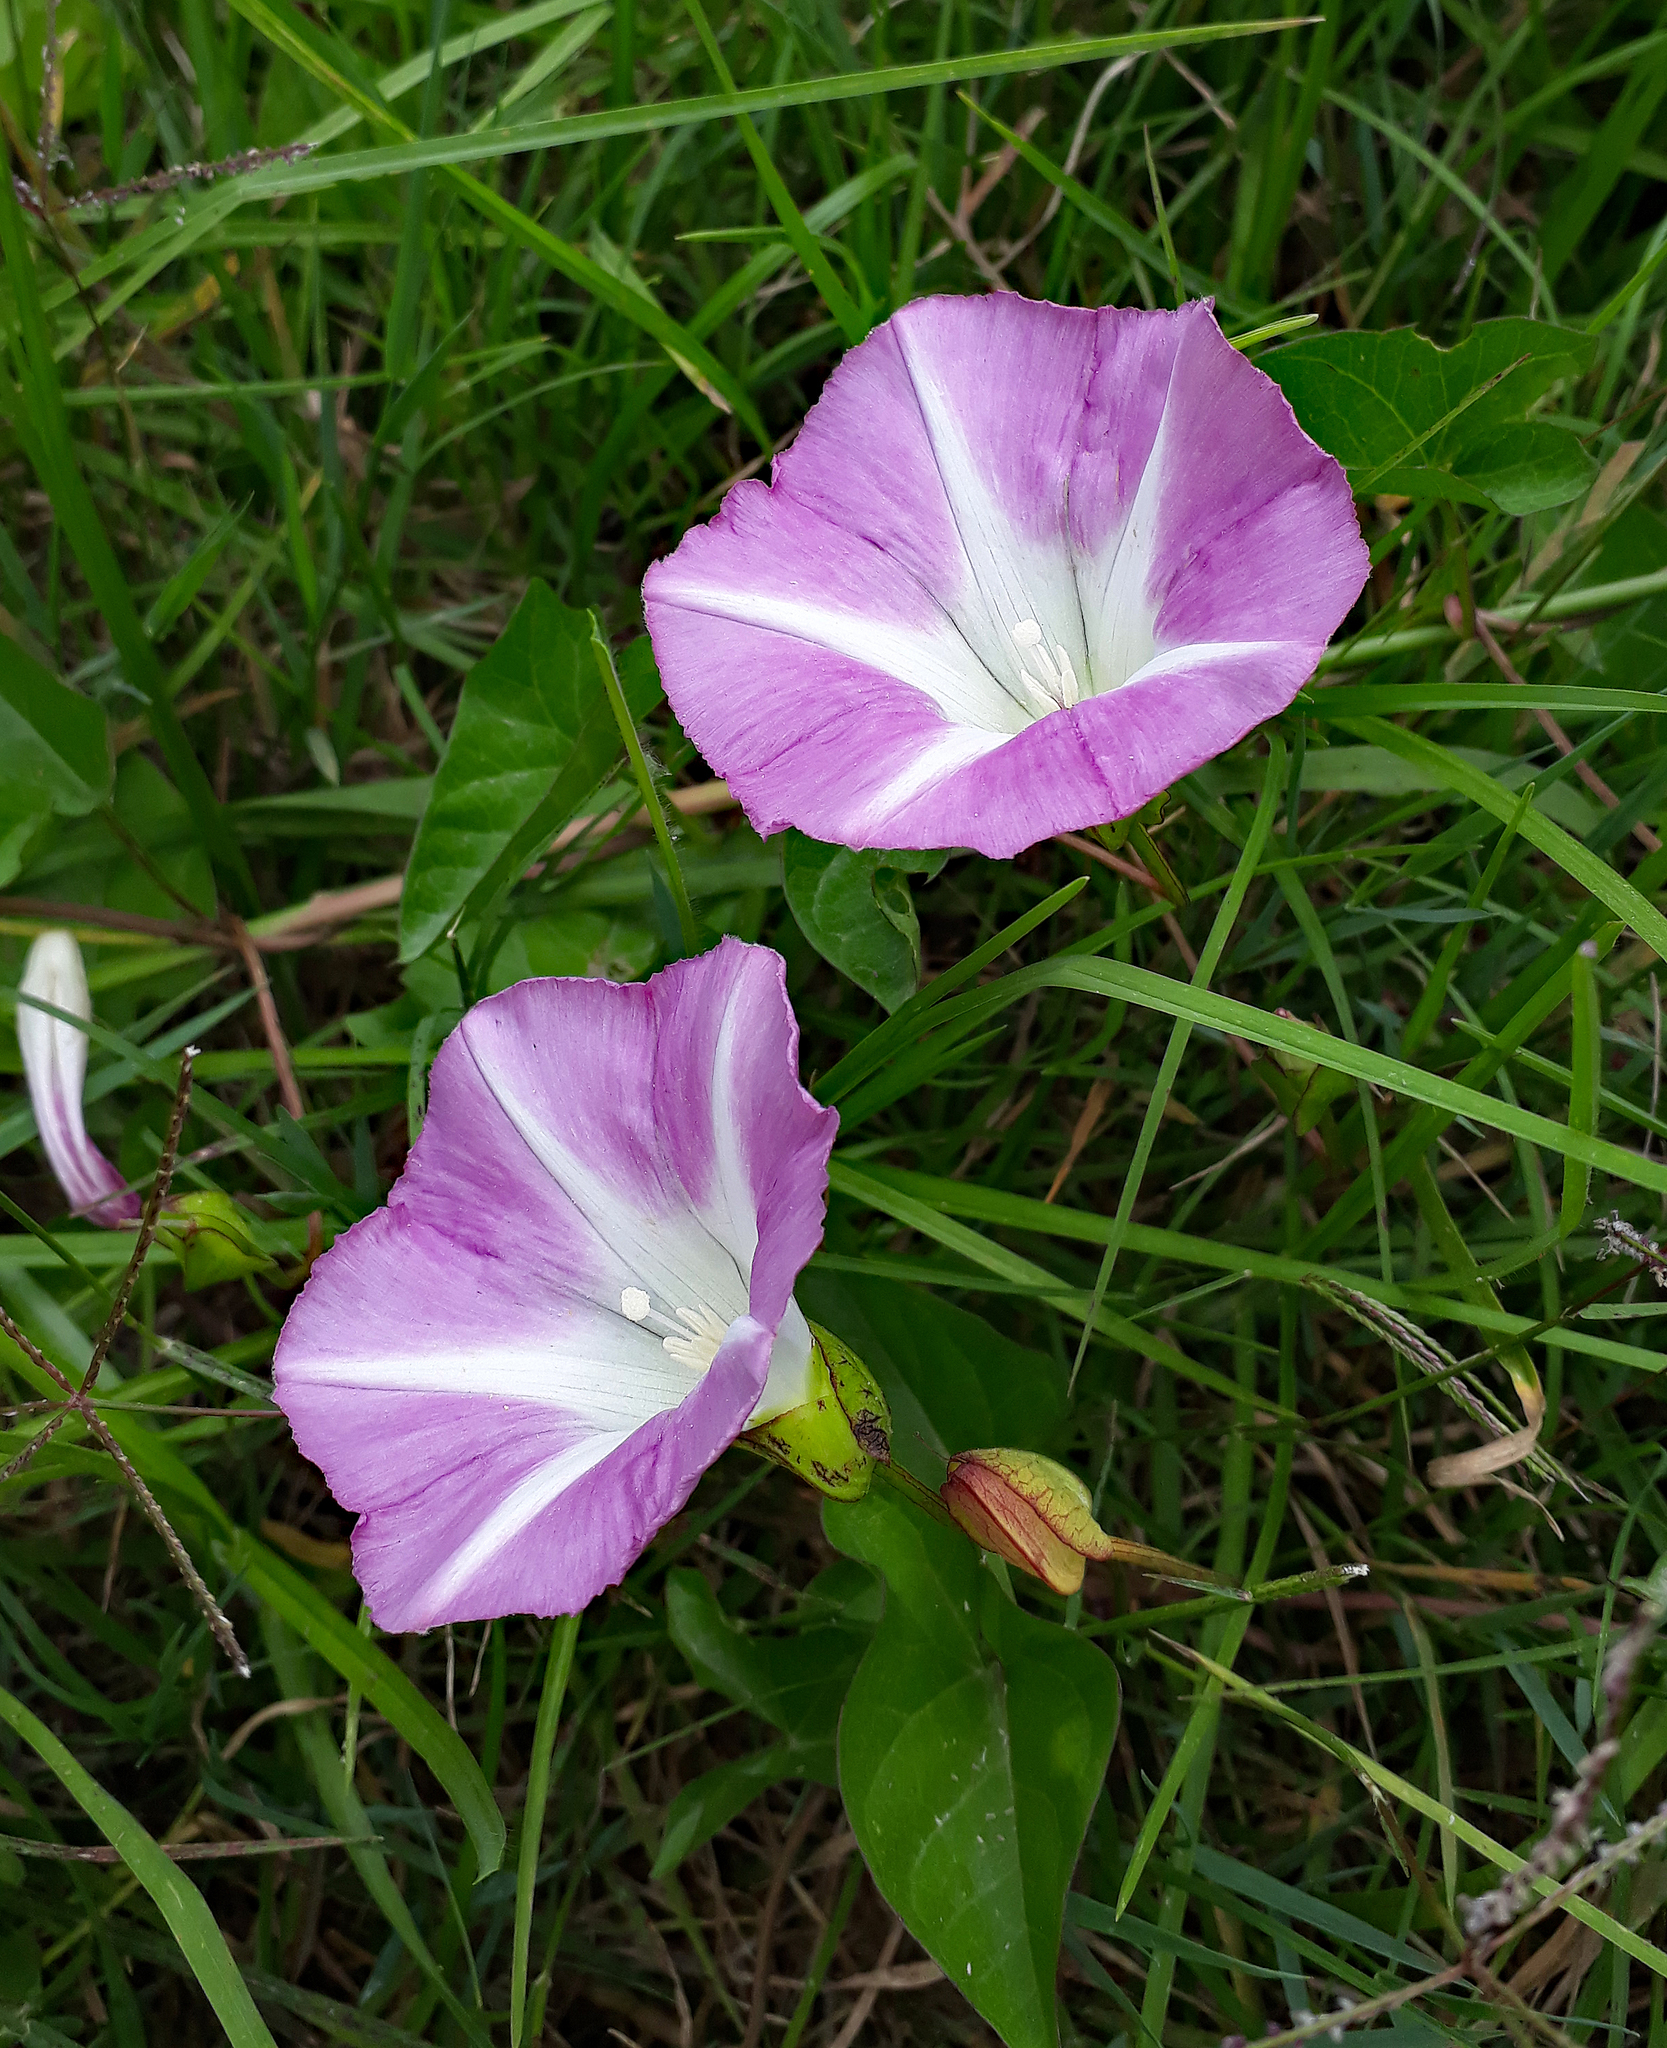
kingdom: Plantae
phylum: Tracheophyta
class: Magnoliopsida
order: Solanales
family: Convolvulaceae
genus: Calystegia
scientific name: Calystegia sepium
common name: Hedge bindweed
